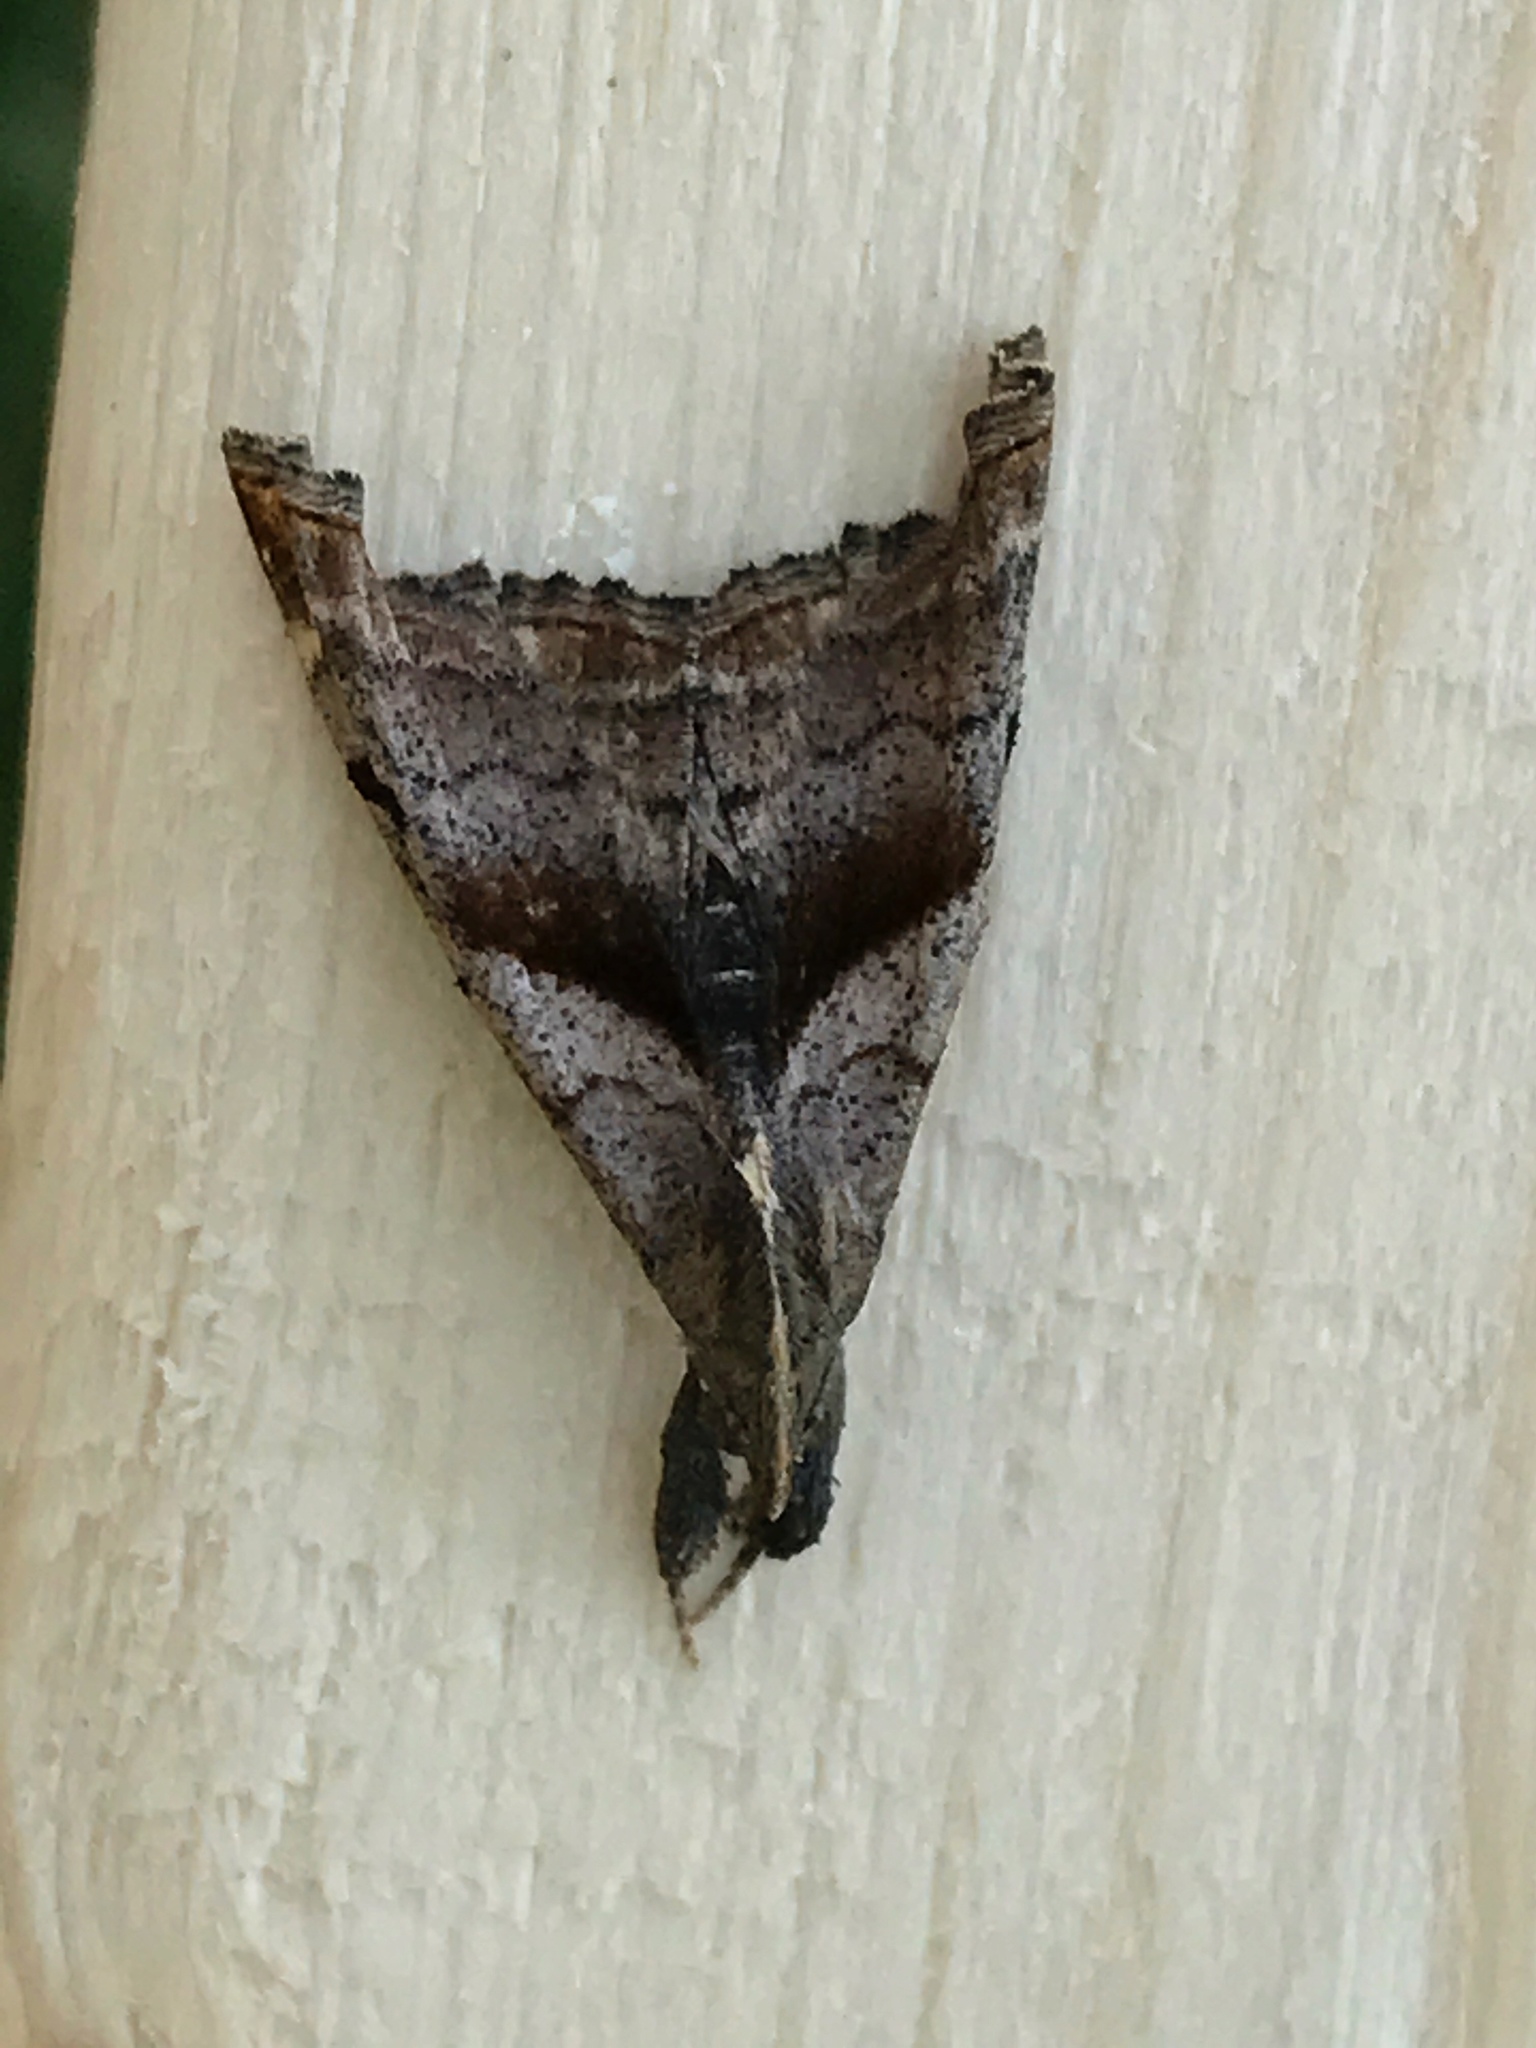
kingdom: Animalia
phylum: Arthropoda
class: Insecta
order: Lepidoptera
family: Erebidae
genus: Palthis
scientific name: Palthis angulalis
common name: Dark-spotted palthis moth
